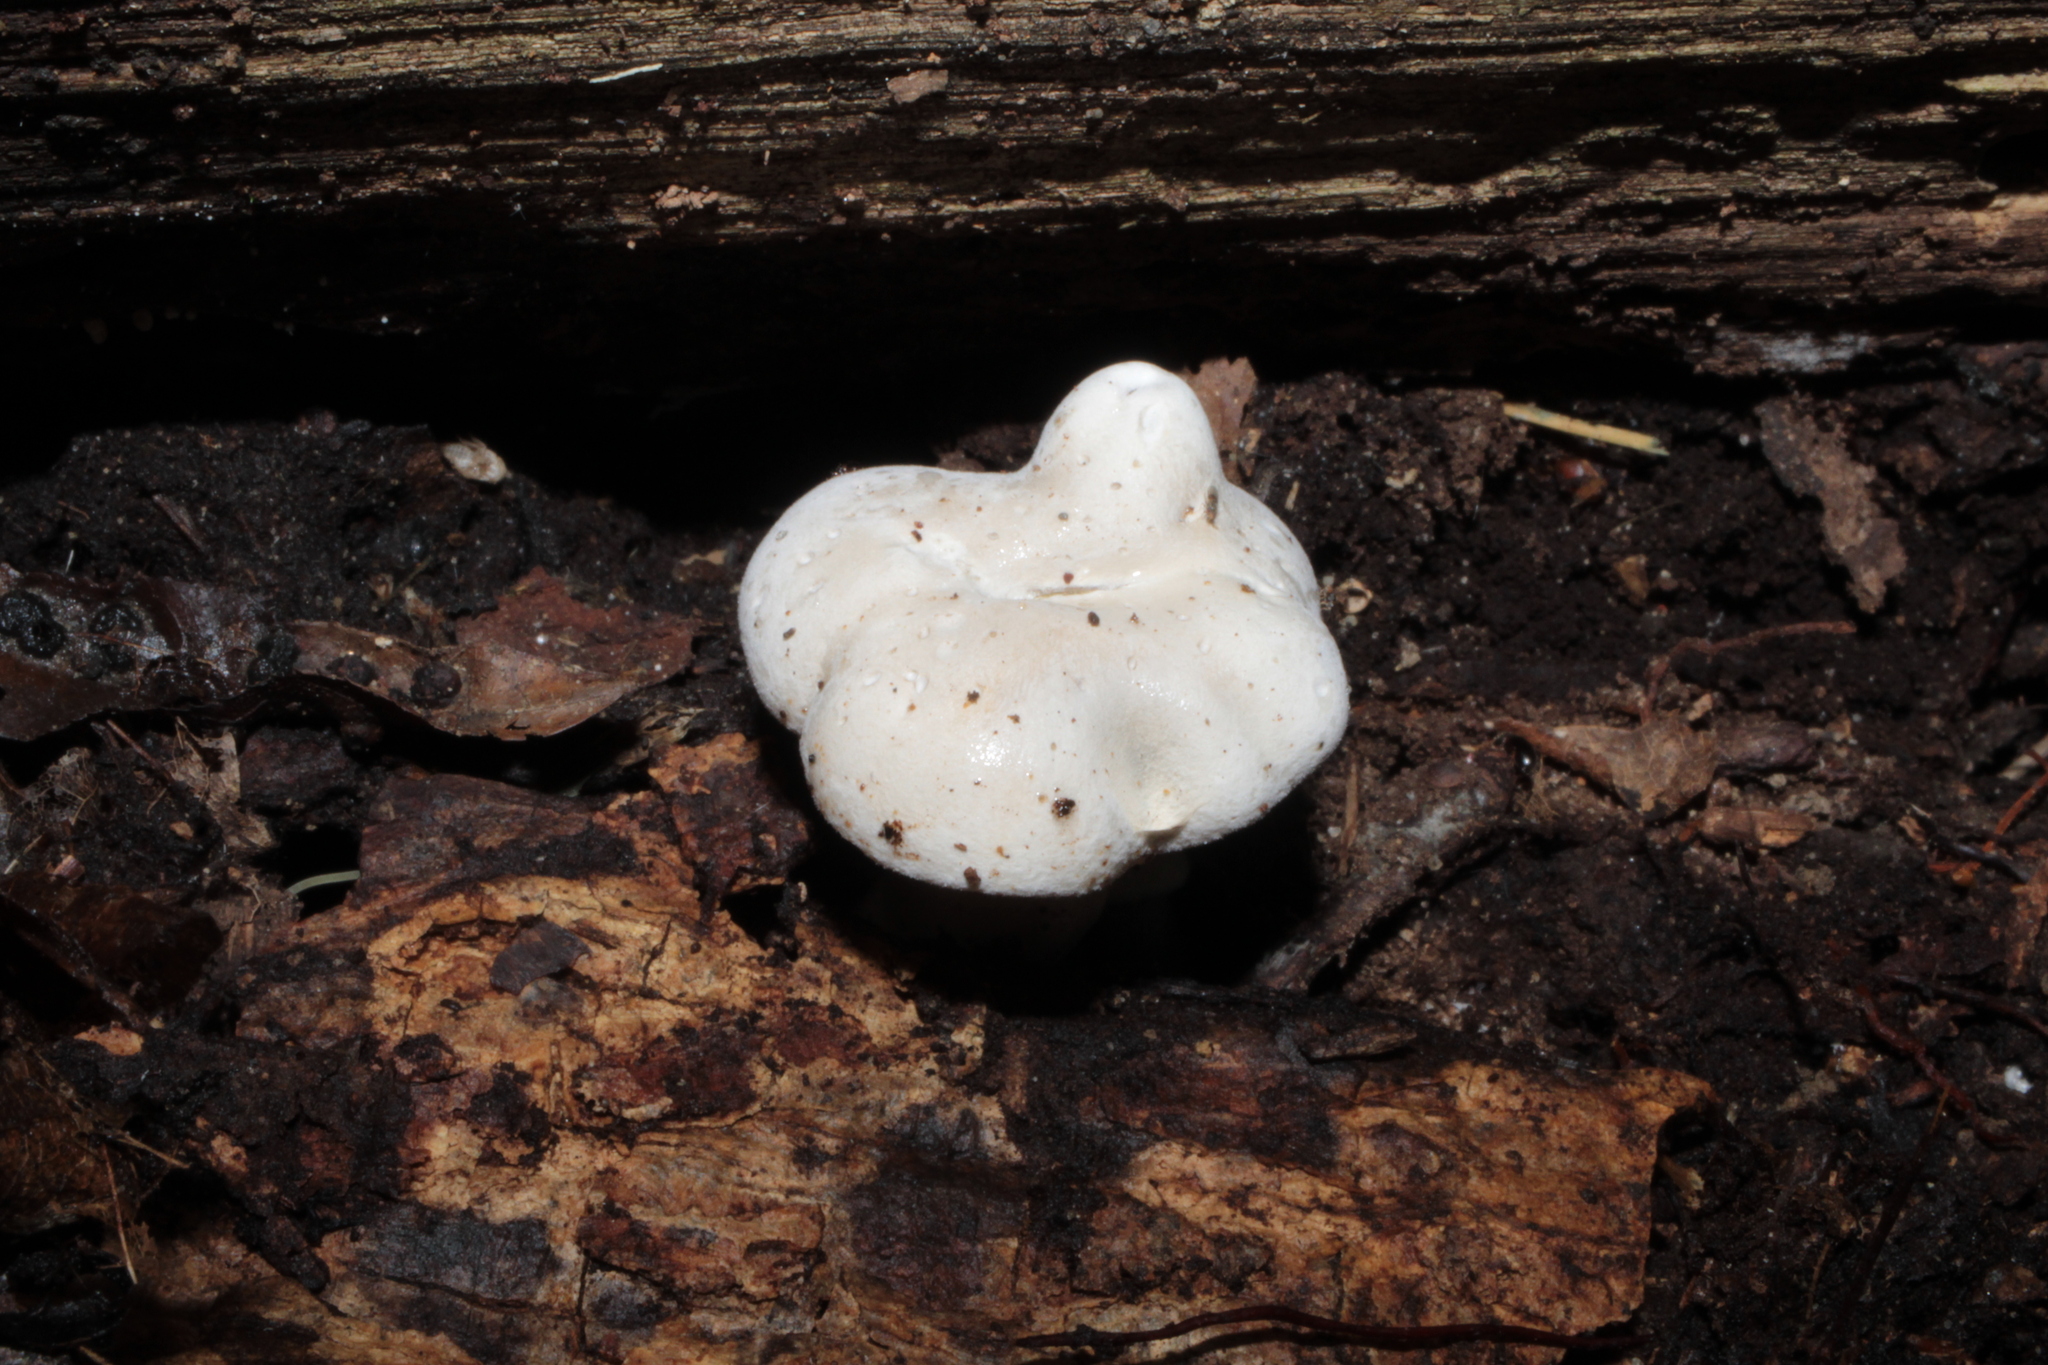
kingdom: Fungi
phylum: Basidiomycota
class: Agaricomycetes
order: Agaricales
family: Entolomataceae
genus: Clitopilus
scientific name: Clitopilus cystidiatus
